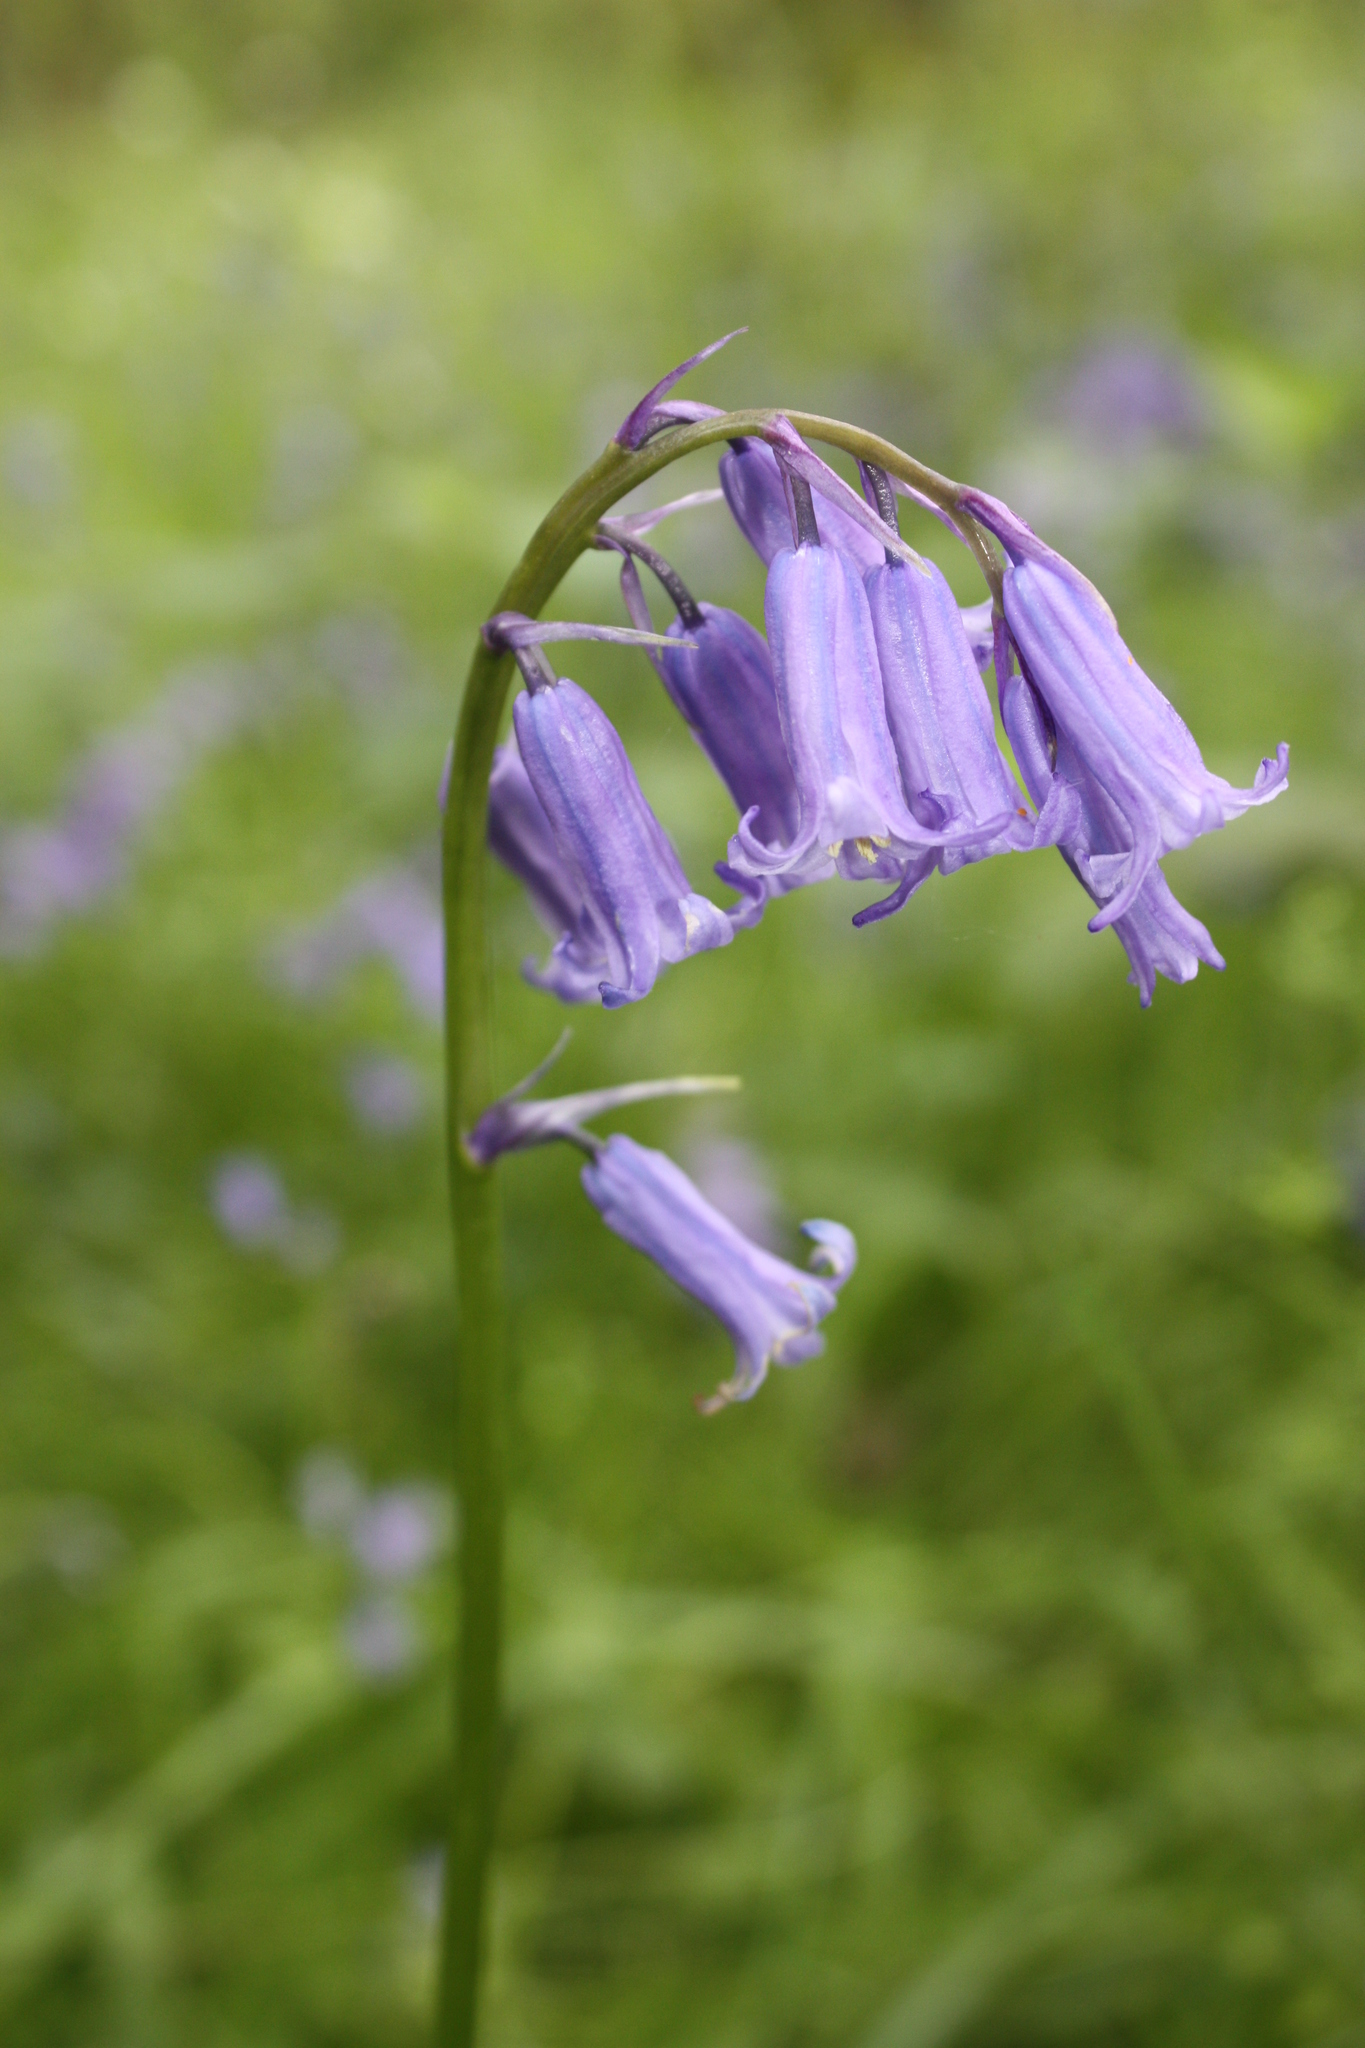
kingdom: Plantae
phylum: Tracheophyta
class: Liliopsida
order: Asparagales
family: Asparagaceae
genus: Hyacinthoides
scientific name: Hyacinthoides non-scripta
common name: Bluebell
